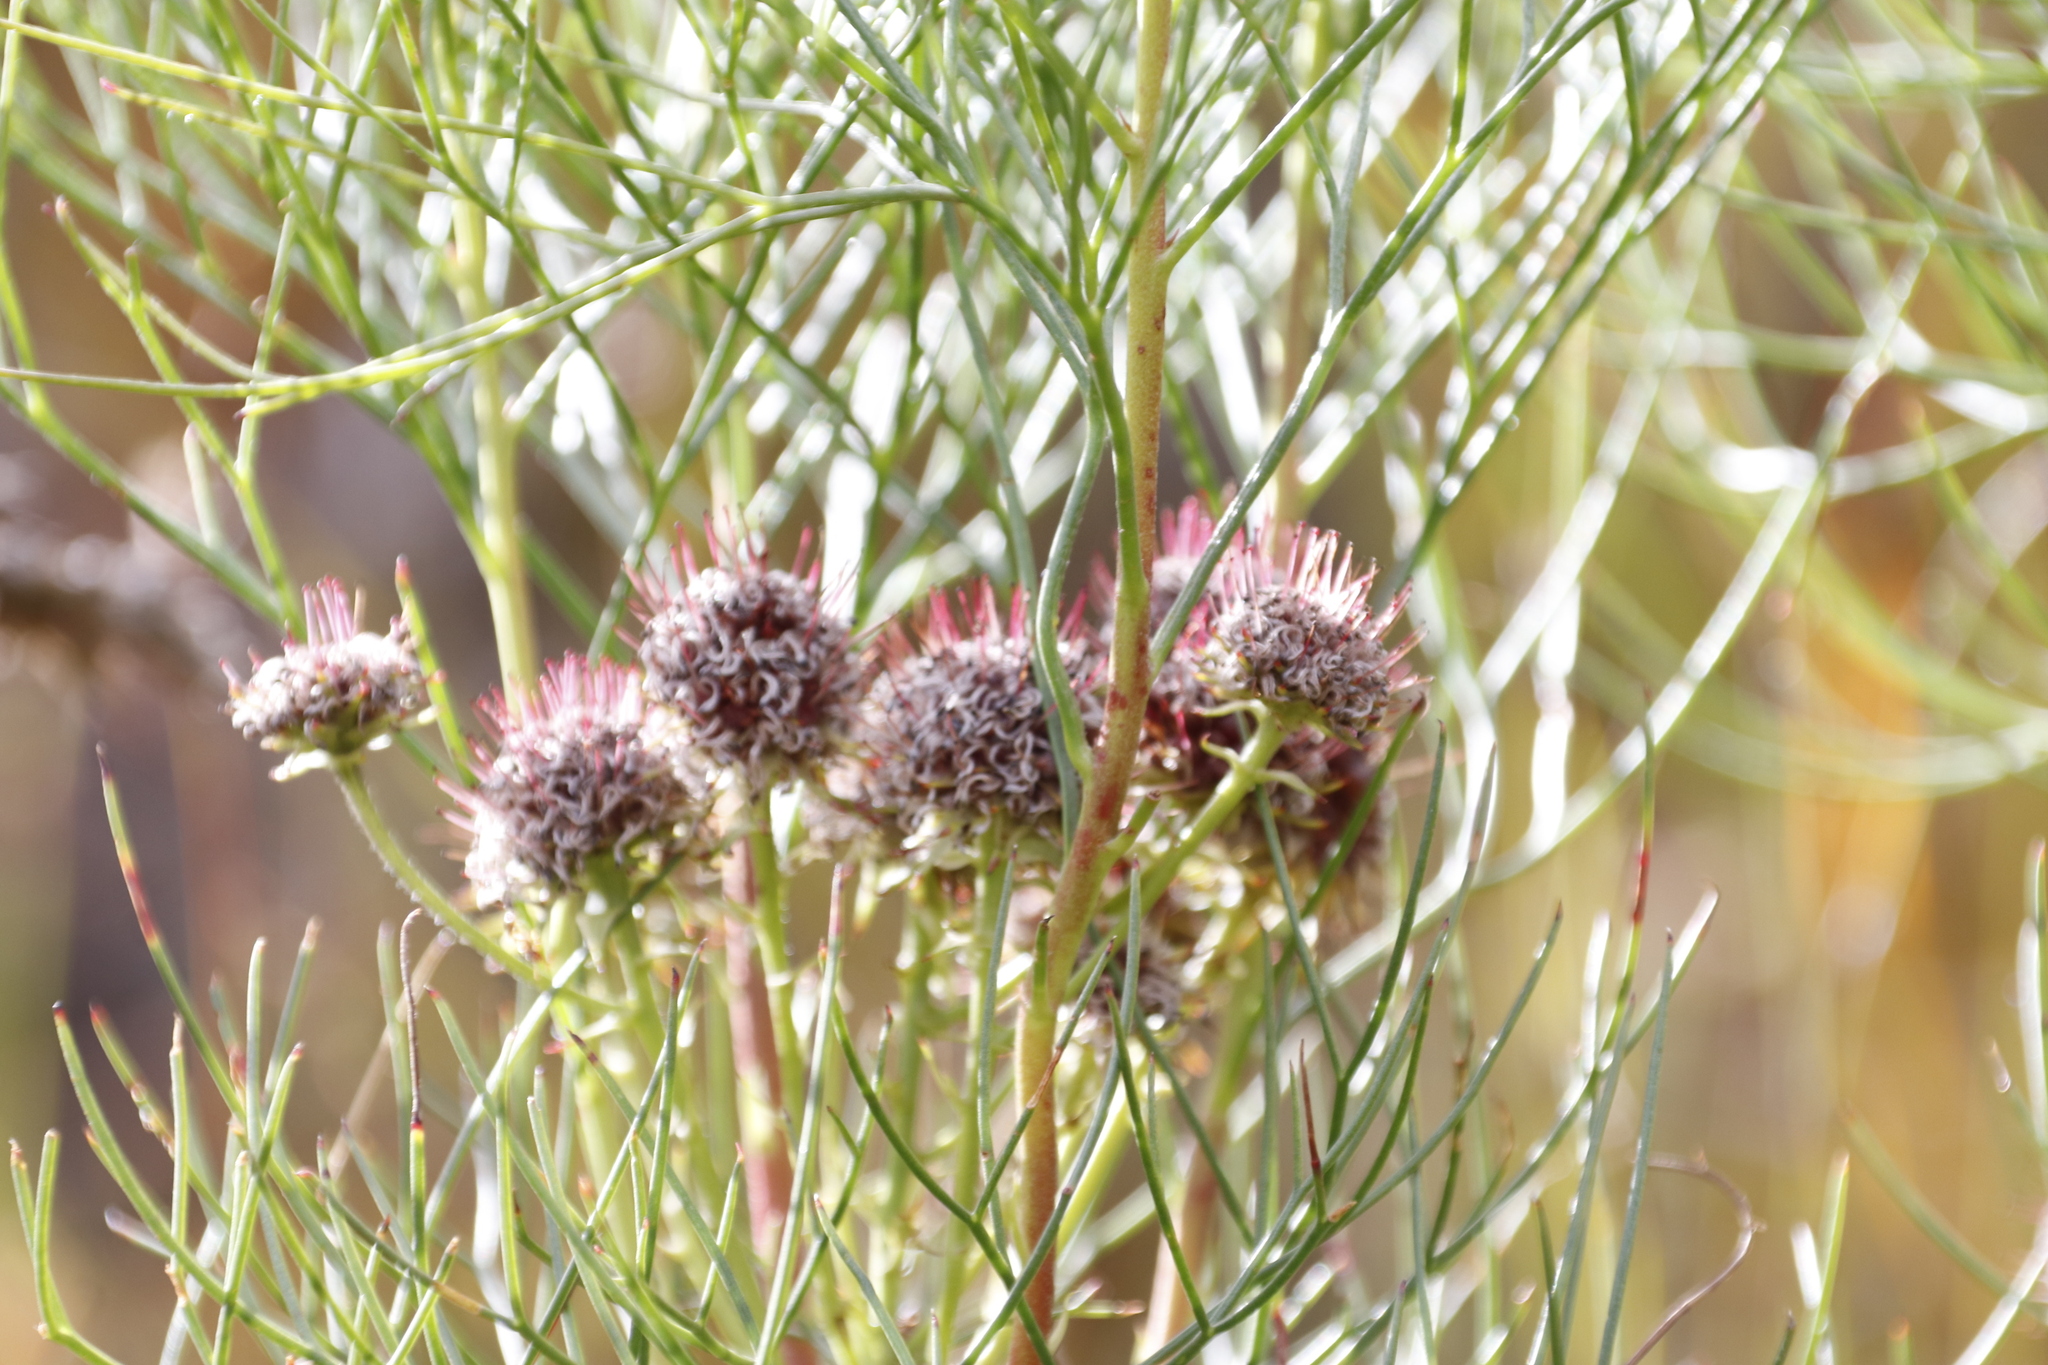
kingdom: Plantae
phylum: Tracheophyta
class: Magnoliopsida
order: Proteales
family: Proteaceae
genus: Serruria
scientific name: Serruria zeyheri
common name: Matchstick spiderhead
